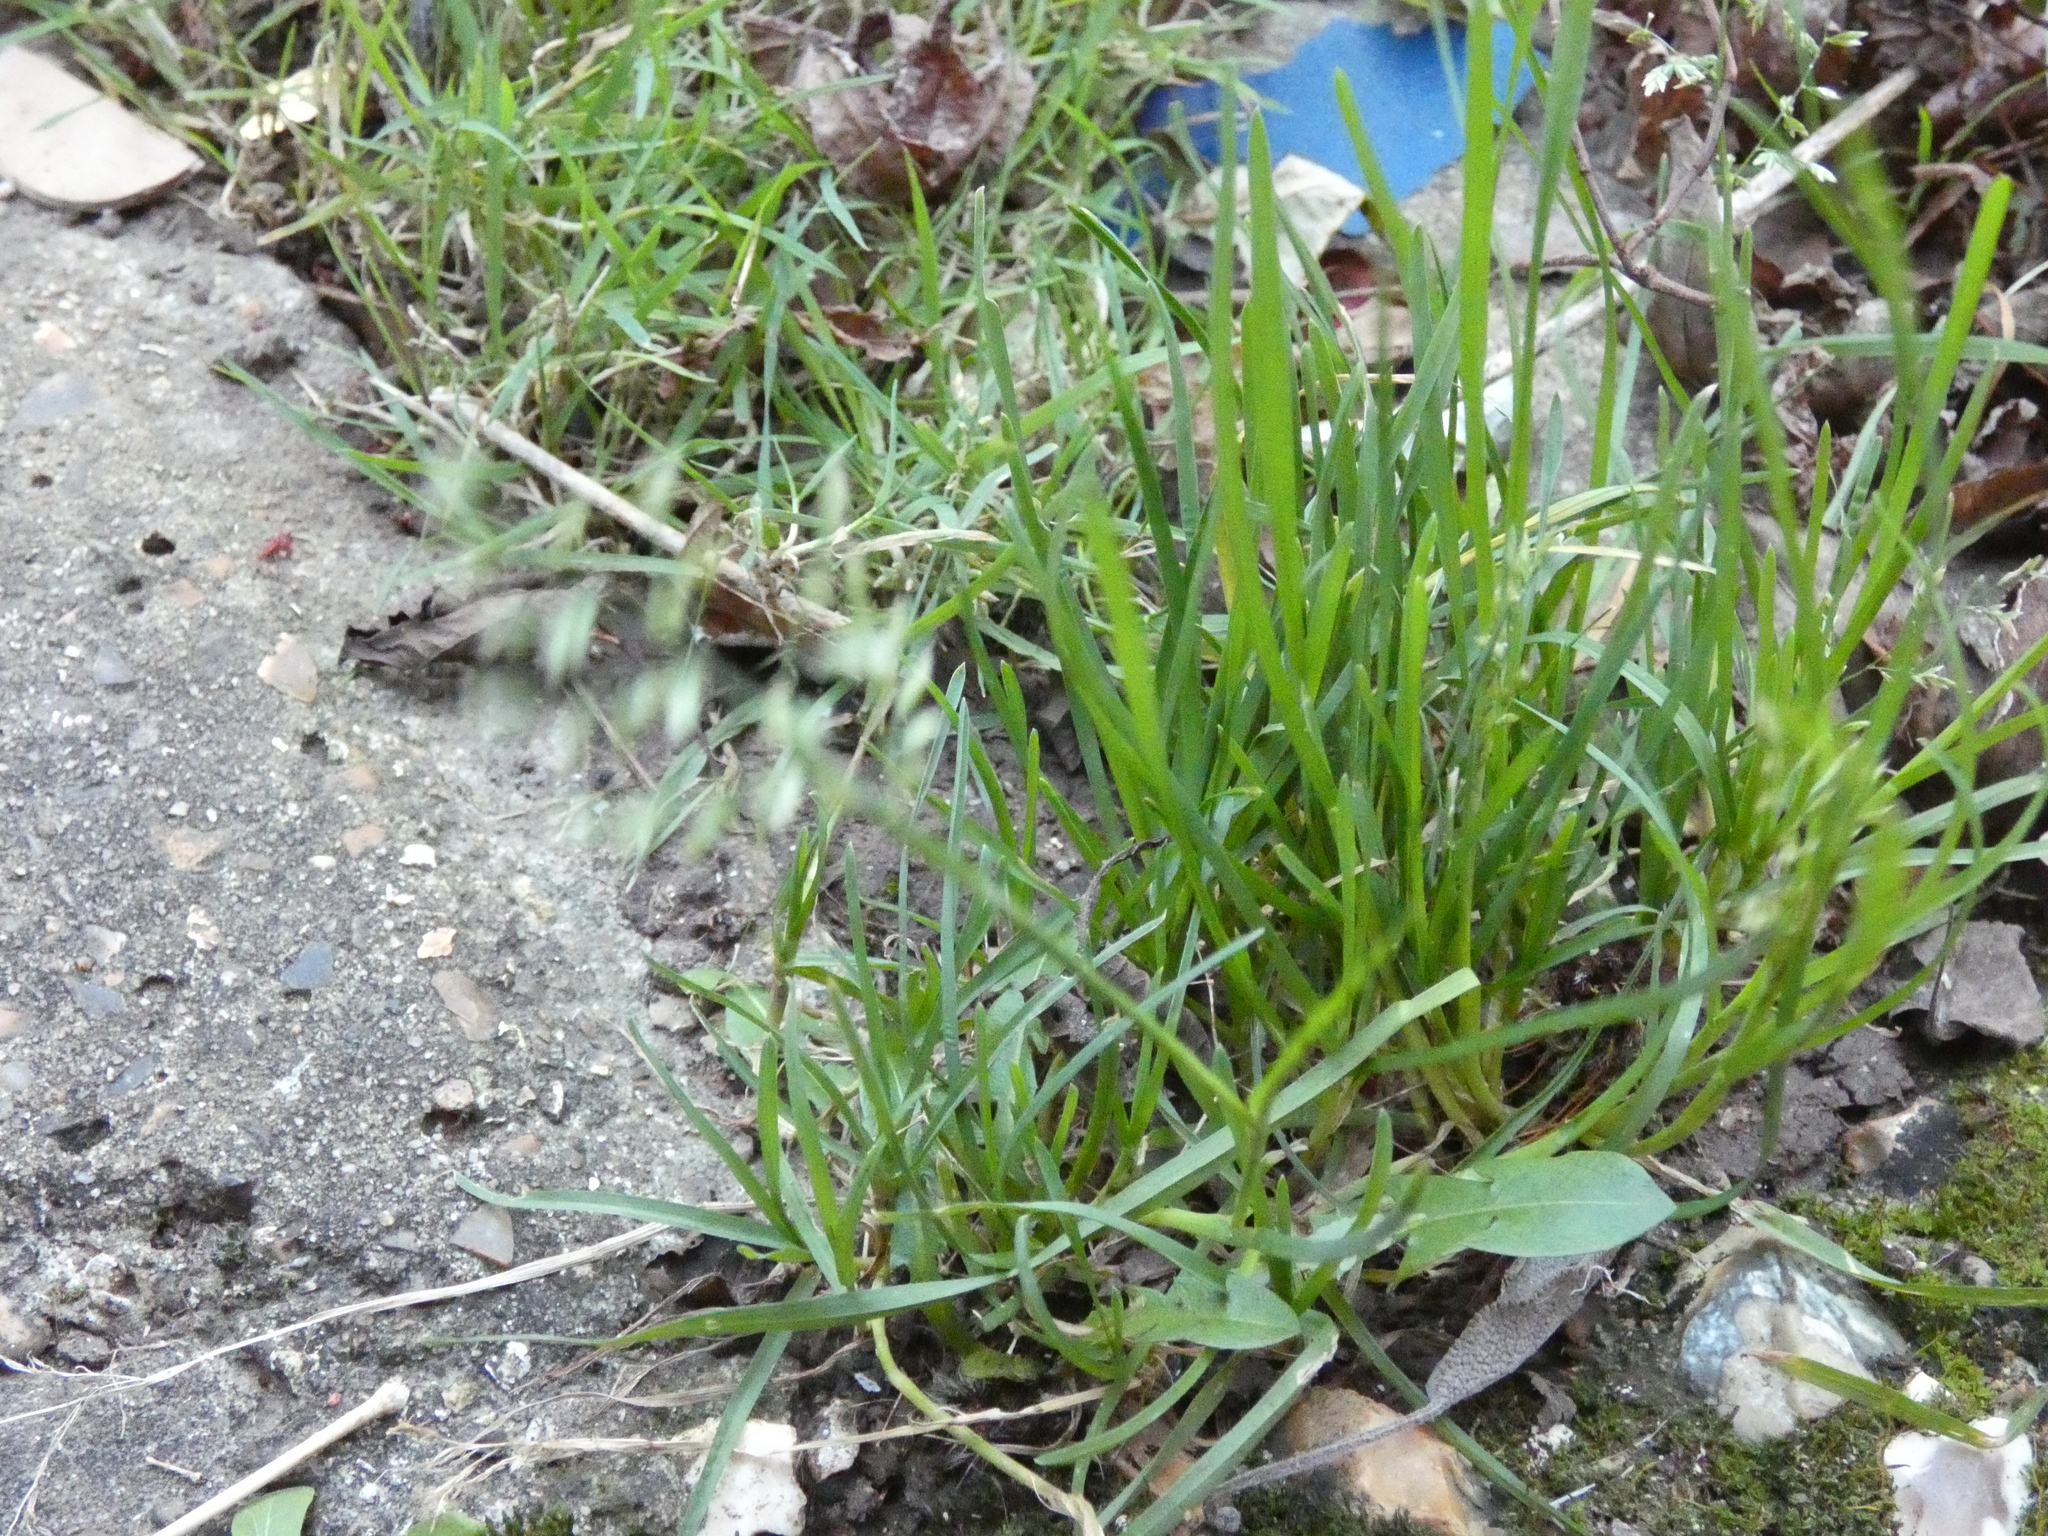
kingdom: Plantae
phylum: Tracheophyta
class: Liliopsida
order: Poales
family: Poaceae
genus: Poa
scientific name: Poa annua
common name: Annual bluegrass
